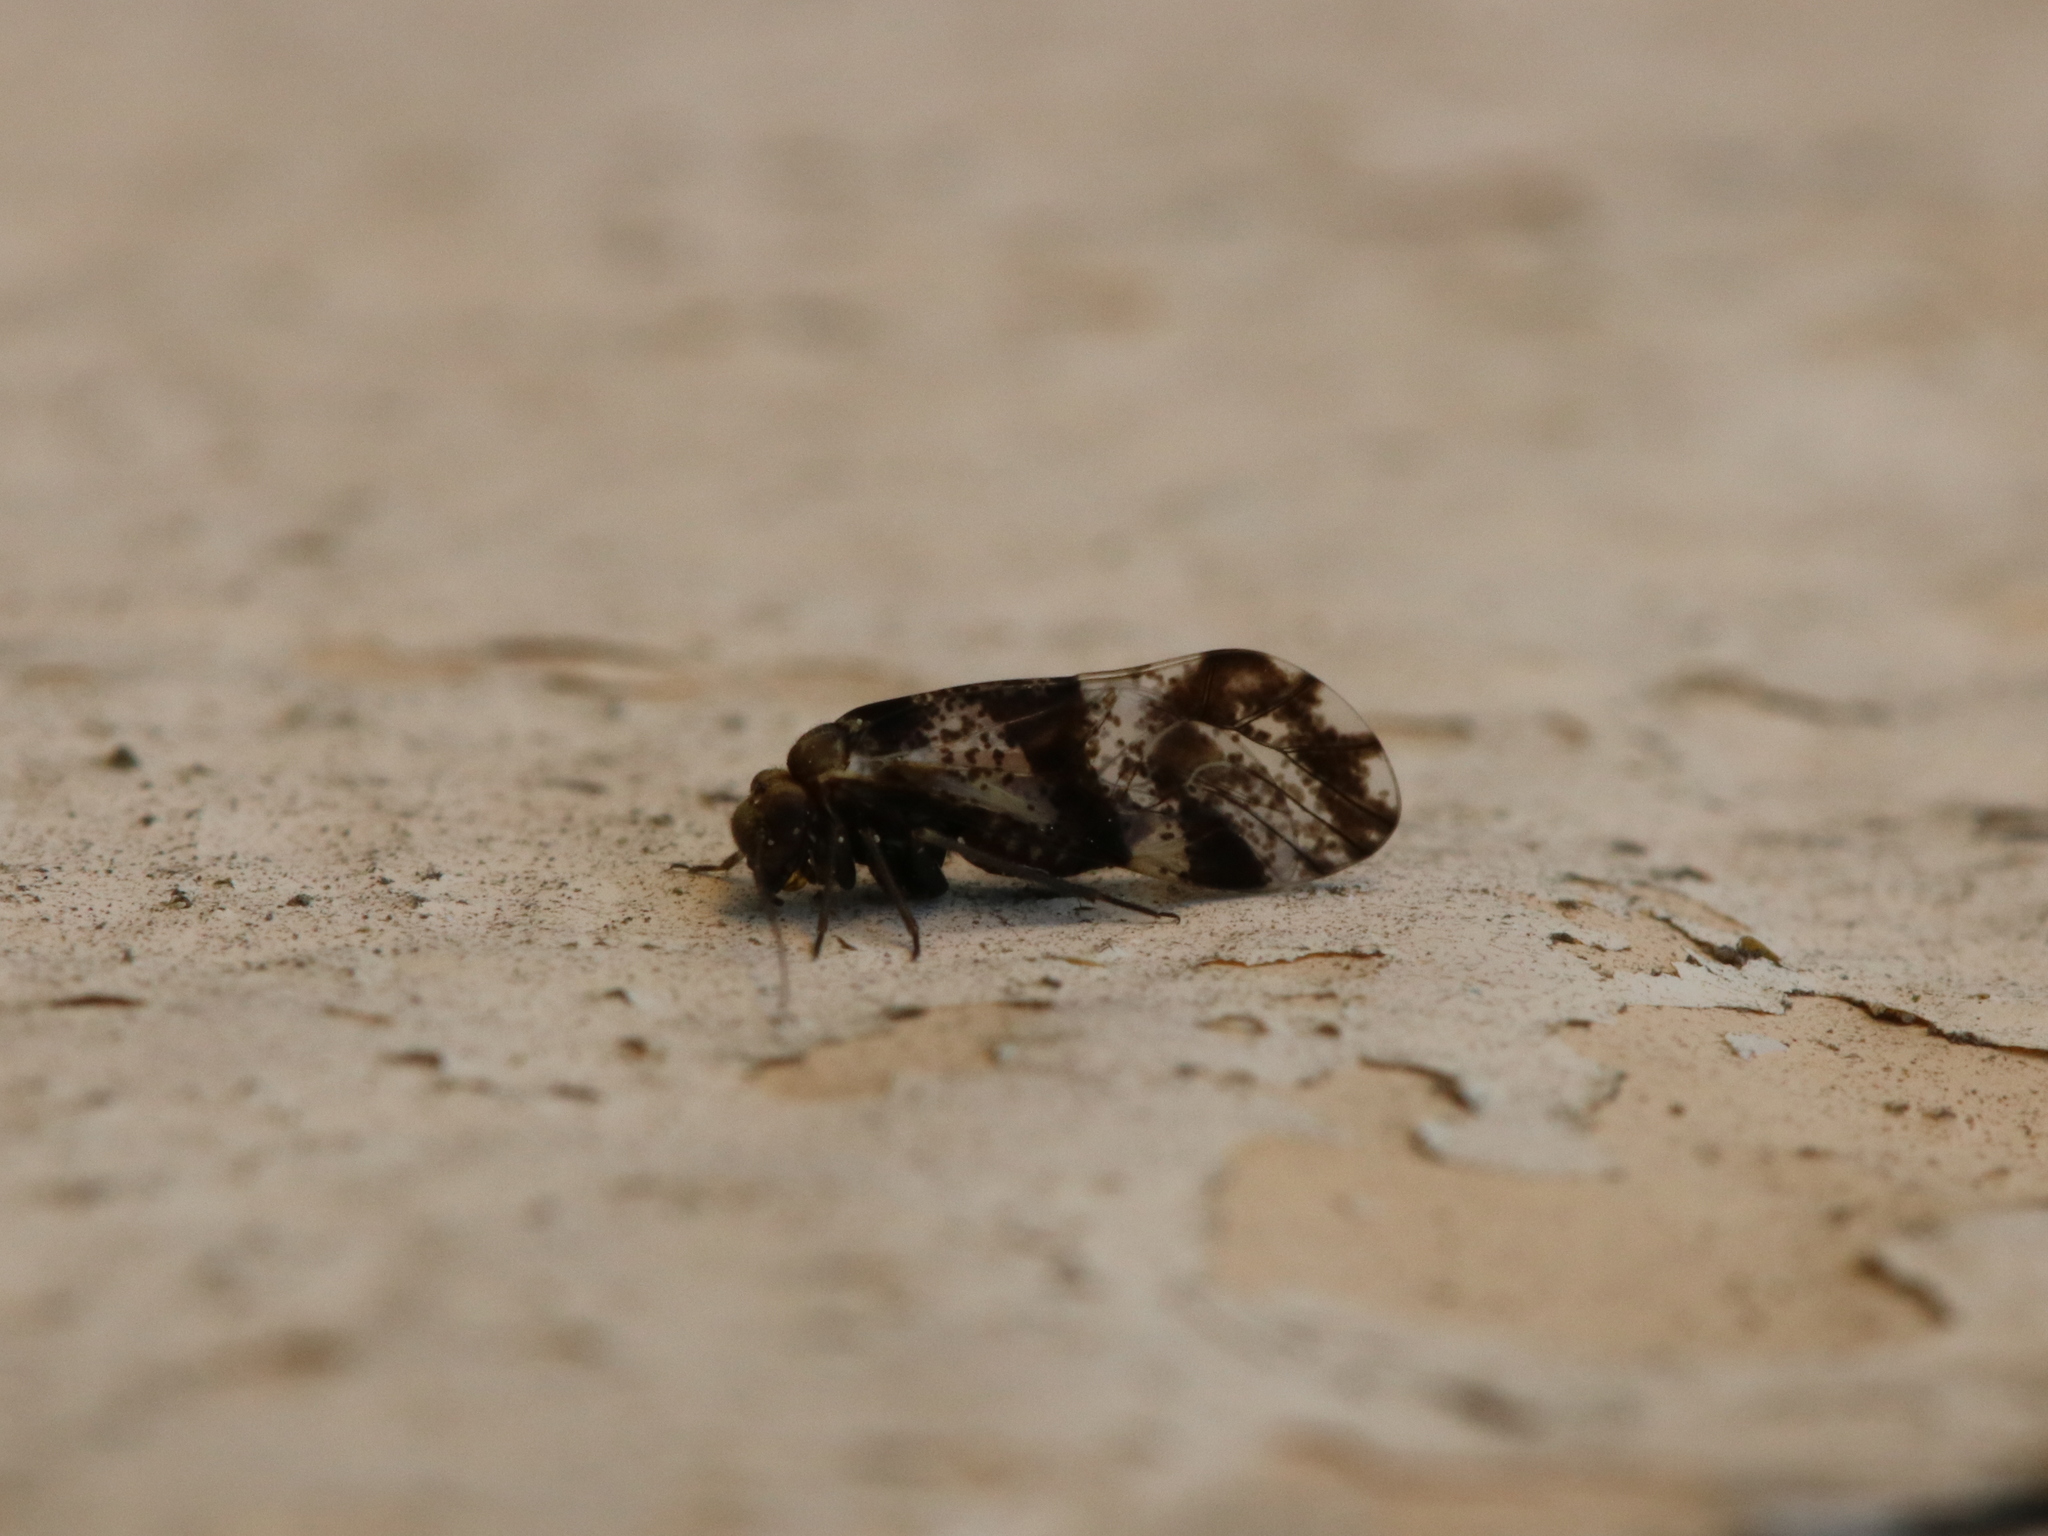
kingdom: Animalia
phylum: Arthropoda
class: Insecta
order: Psocodea
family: Psocidae
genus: Loensia
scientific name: Loensia fasciata
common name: Common bark louse
